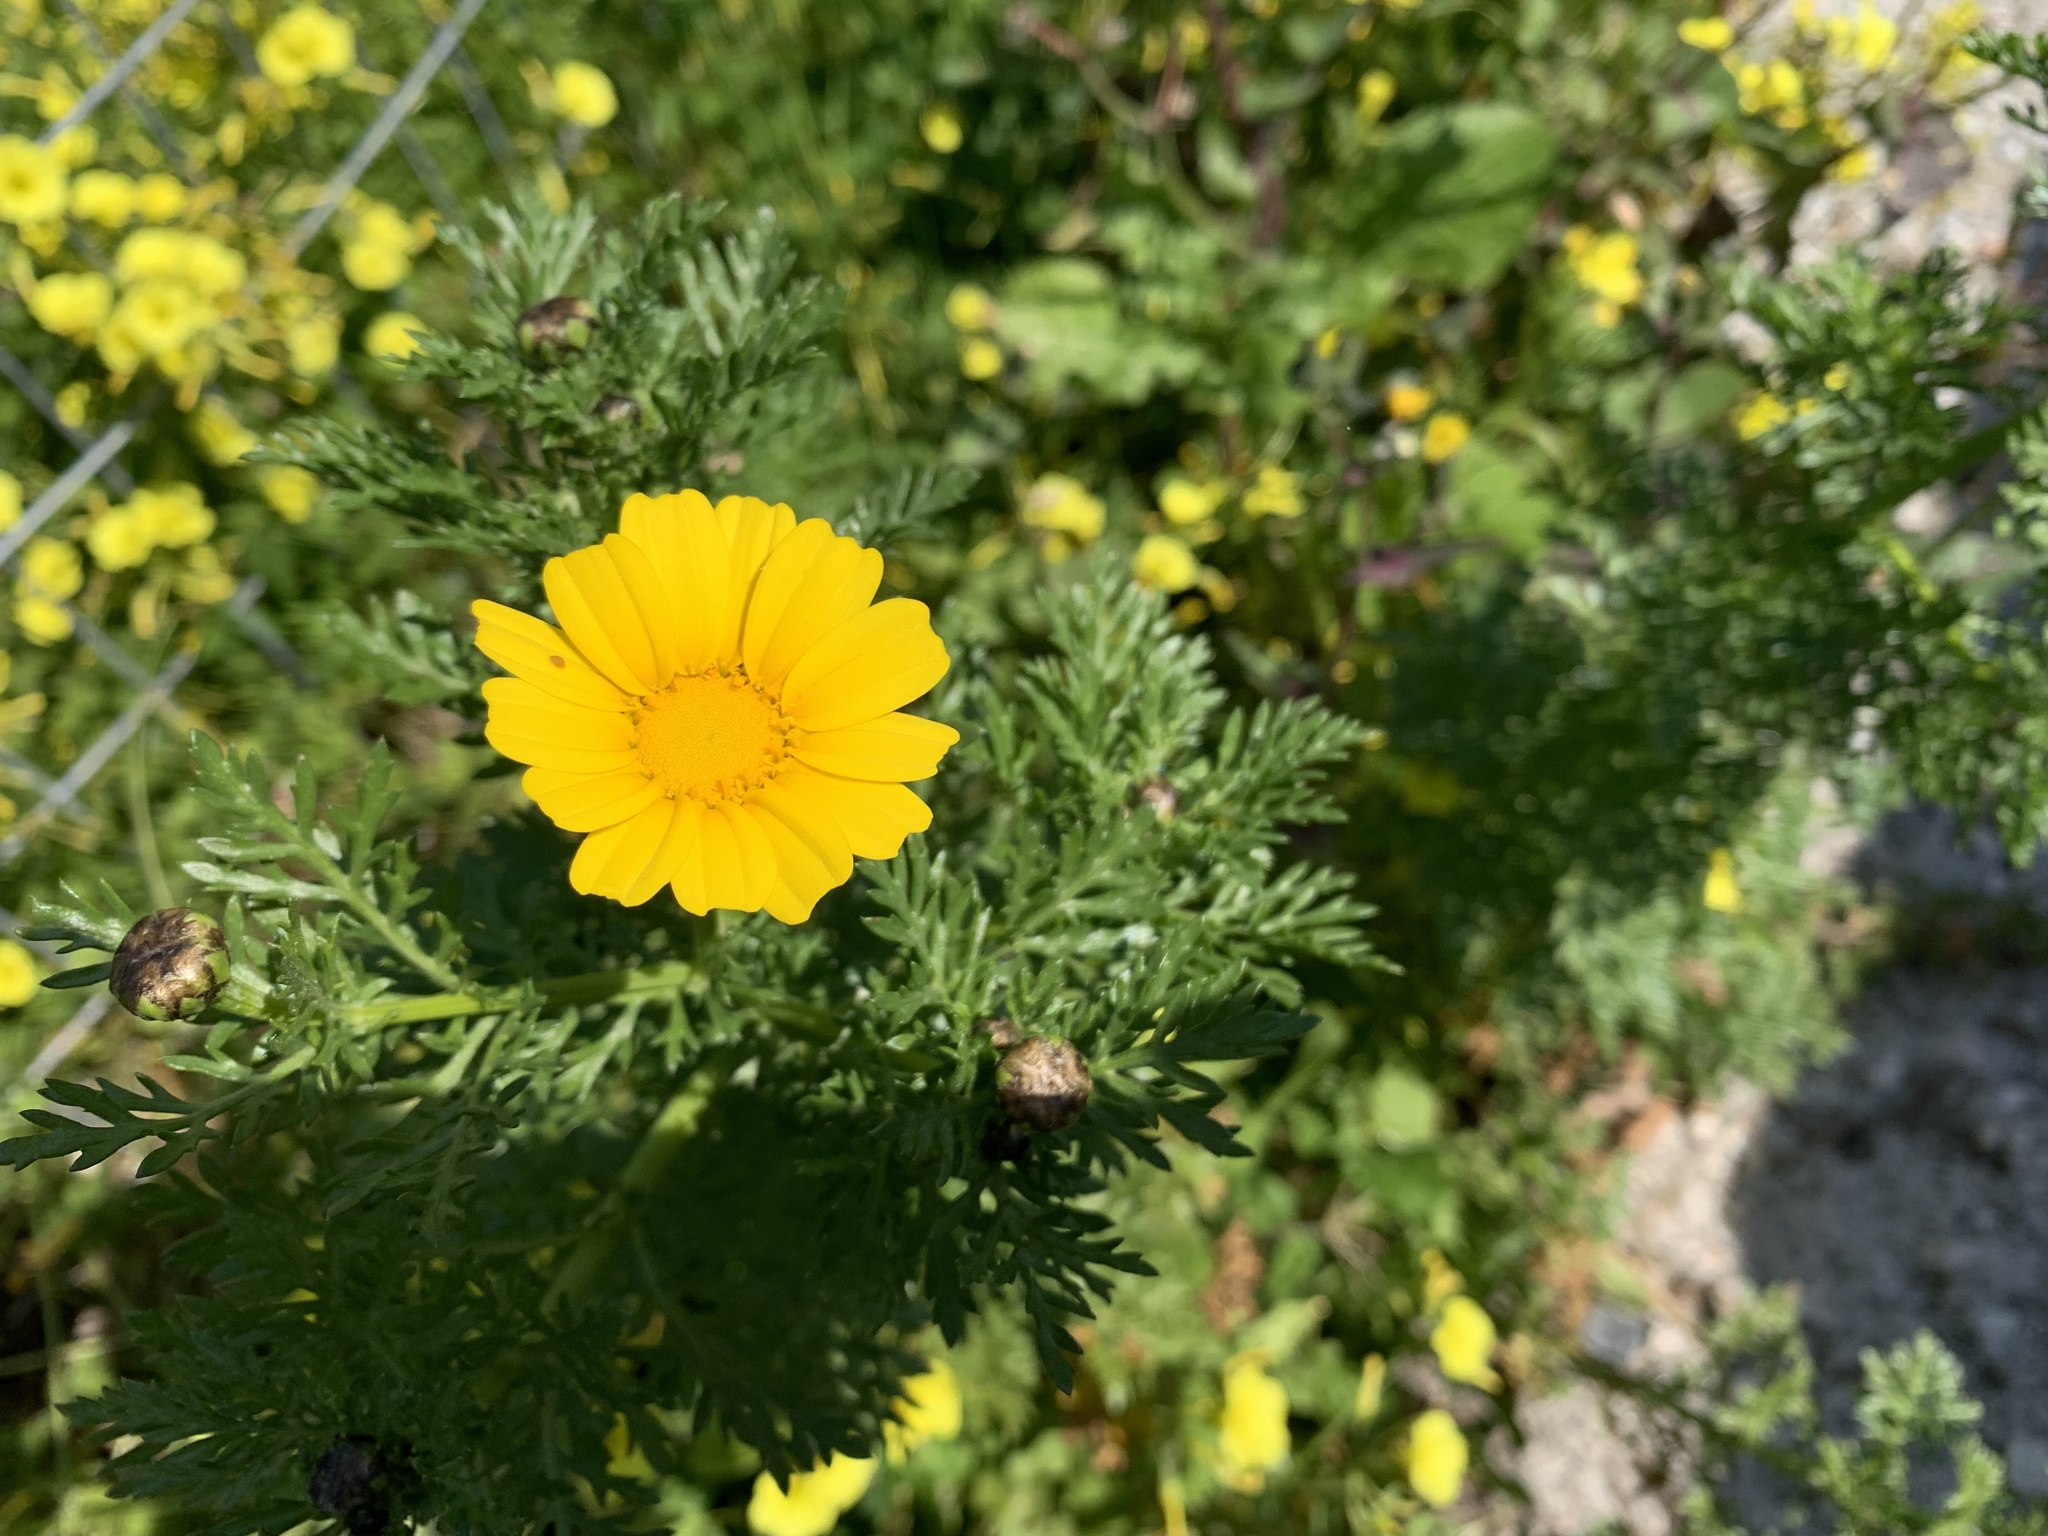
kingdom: Plantae
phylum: Tracheophyta
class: Magnoliopsida
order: Asterales
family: Asteraceae
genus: Glebionis
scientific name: Glebionis coronaria
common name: Crowndaisy
